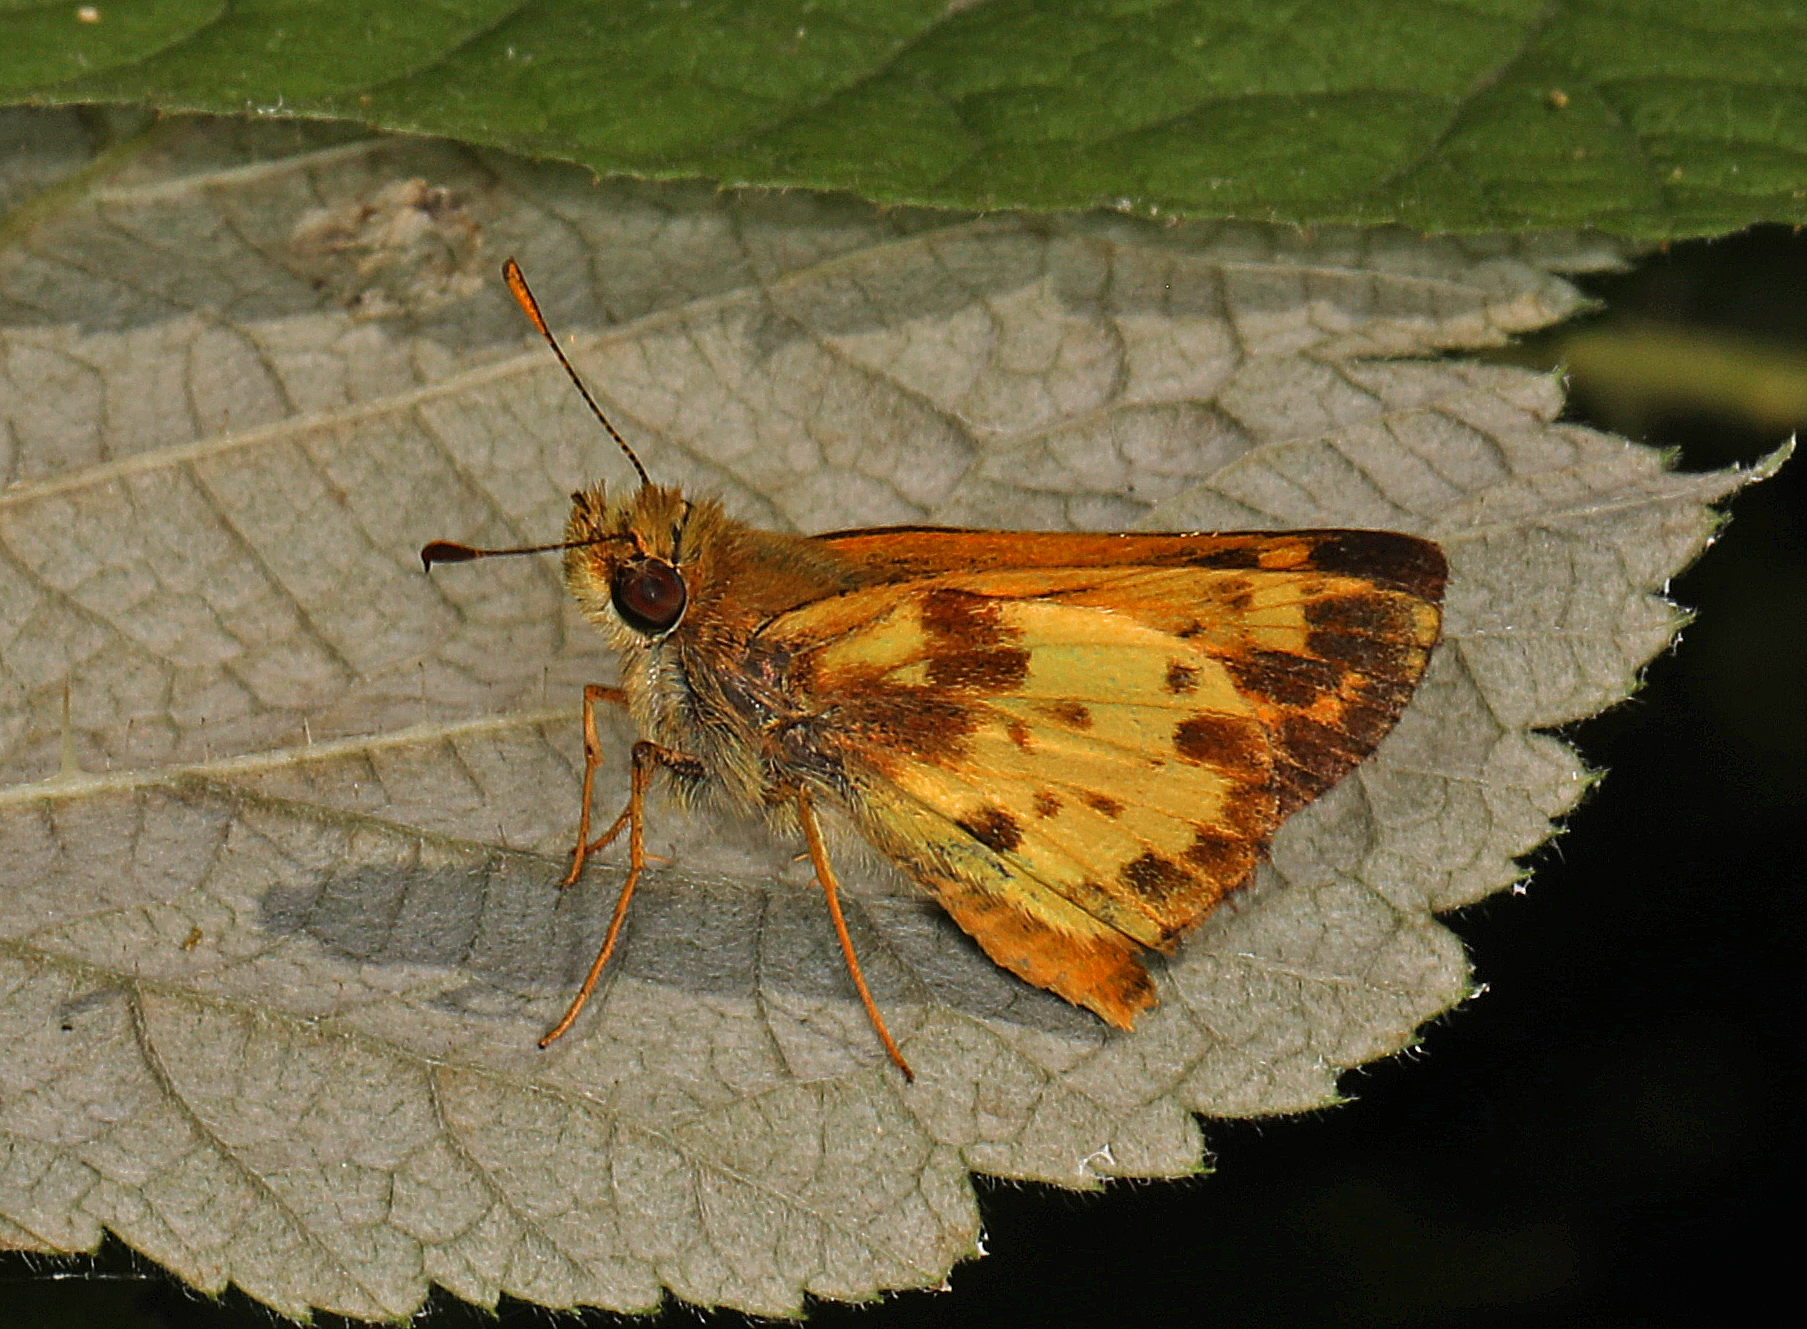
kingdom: Animalia
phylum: Arthropoda
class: Insecta
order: Lepidoptera
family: Hesperiidae
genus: Lon
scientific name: Lon zabulon
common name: Zabulon skipper
